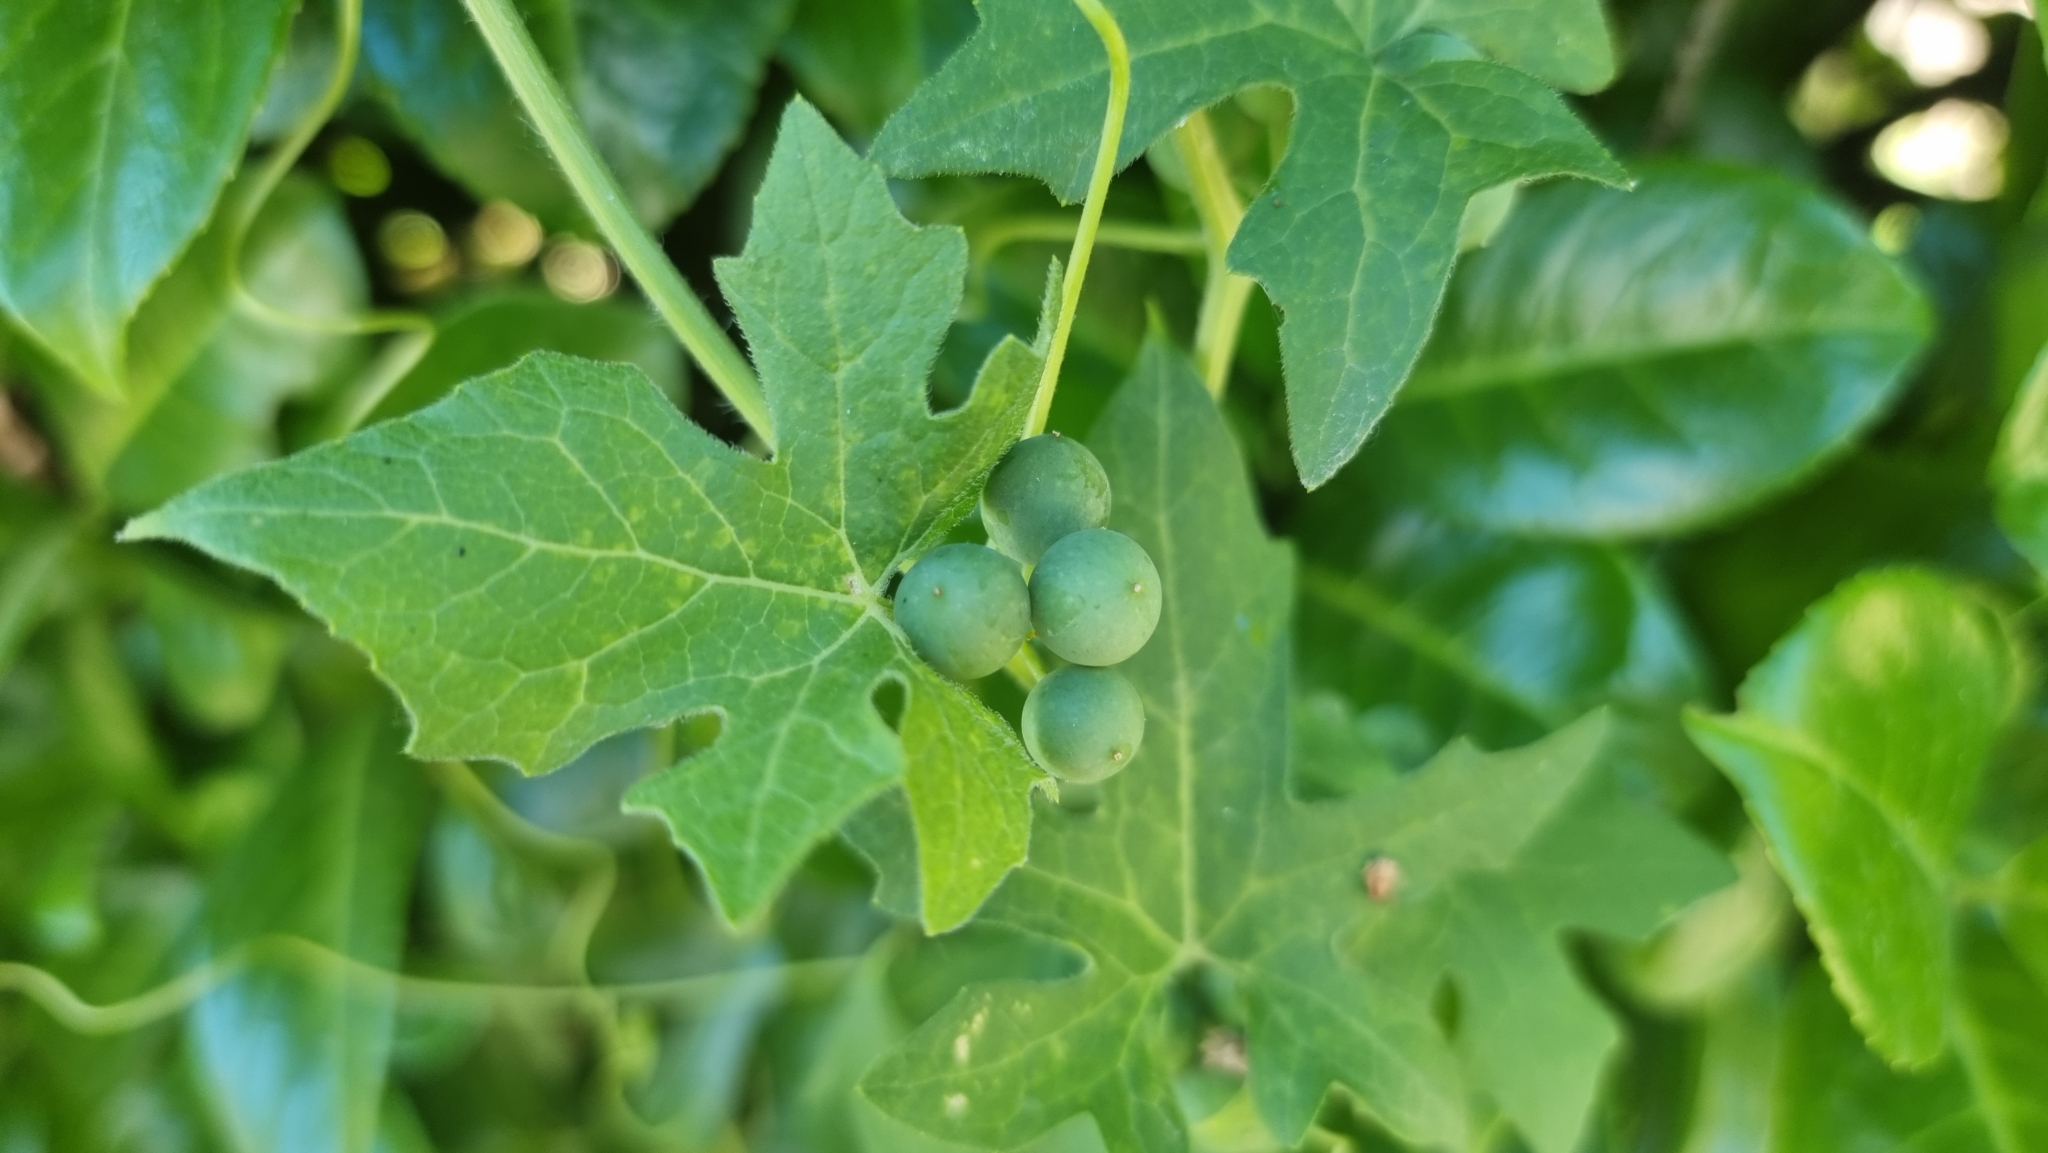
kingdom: Plantae
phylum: Tracheophyta
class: Magnoliopsida
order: Cucurbitales
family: Cucurbitaceae
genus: Bryonia
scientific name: Bryonia dioica
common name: White bryony
